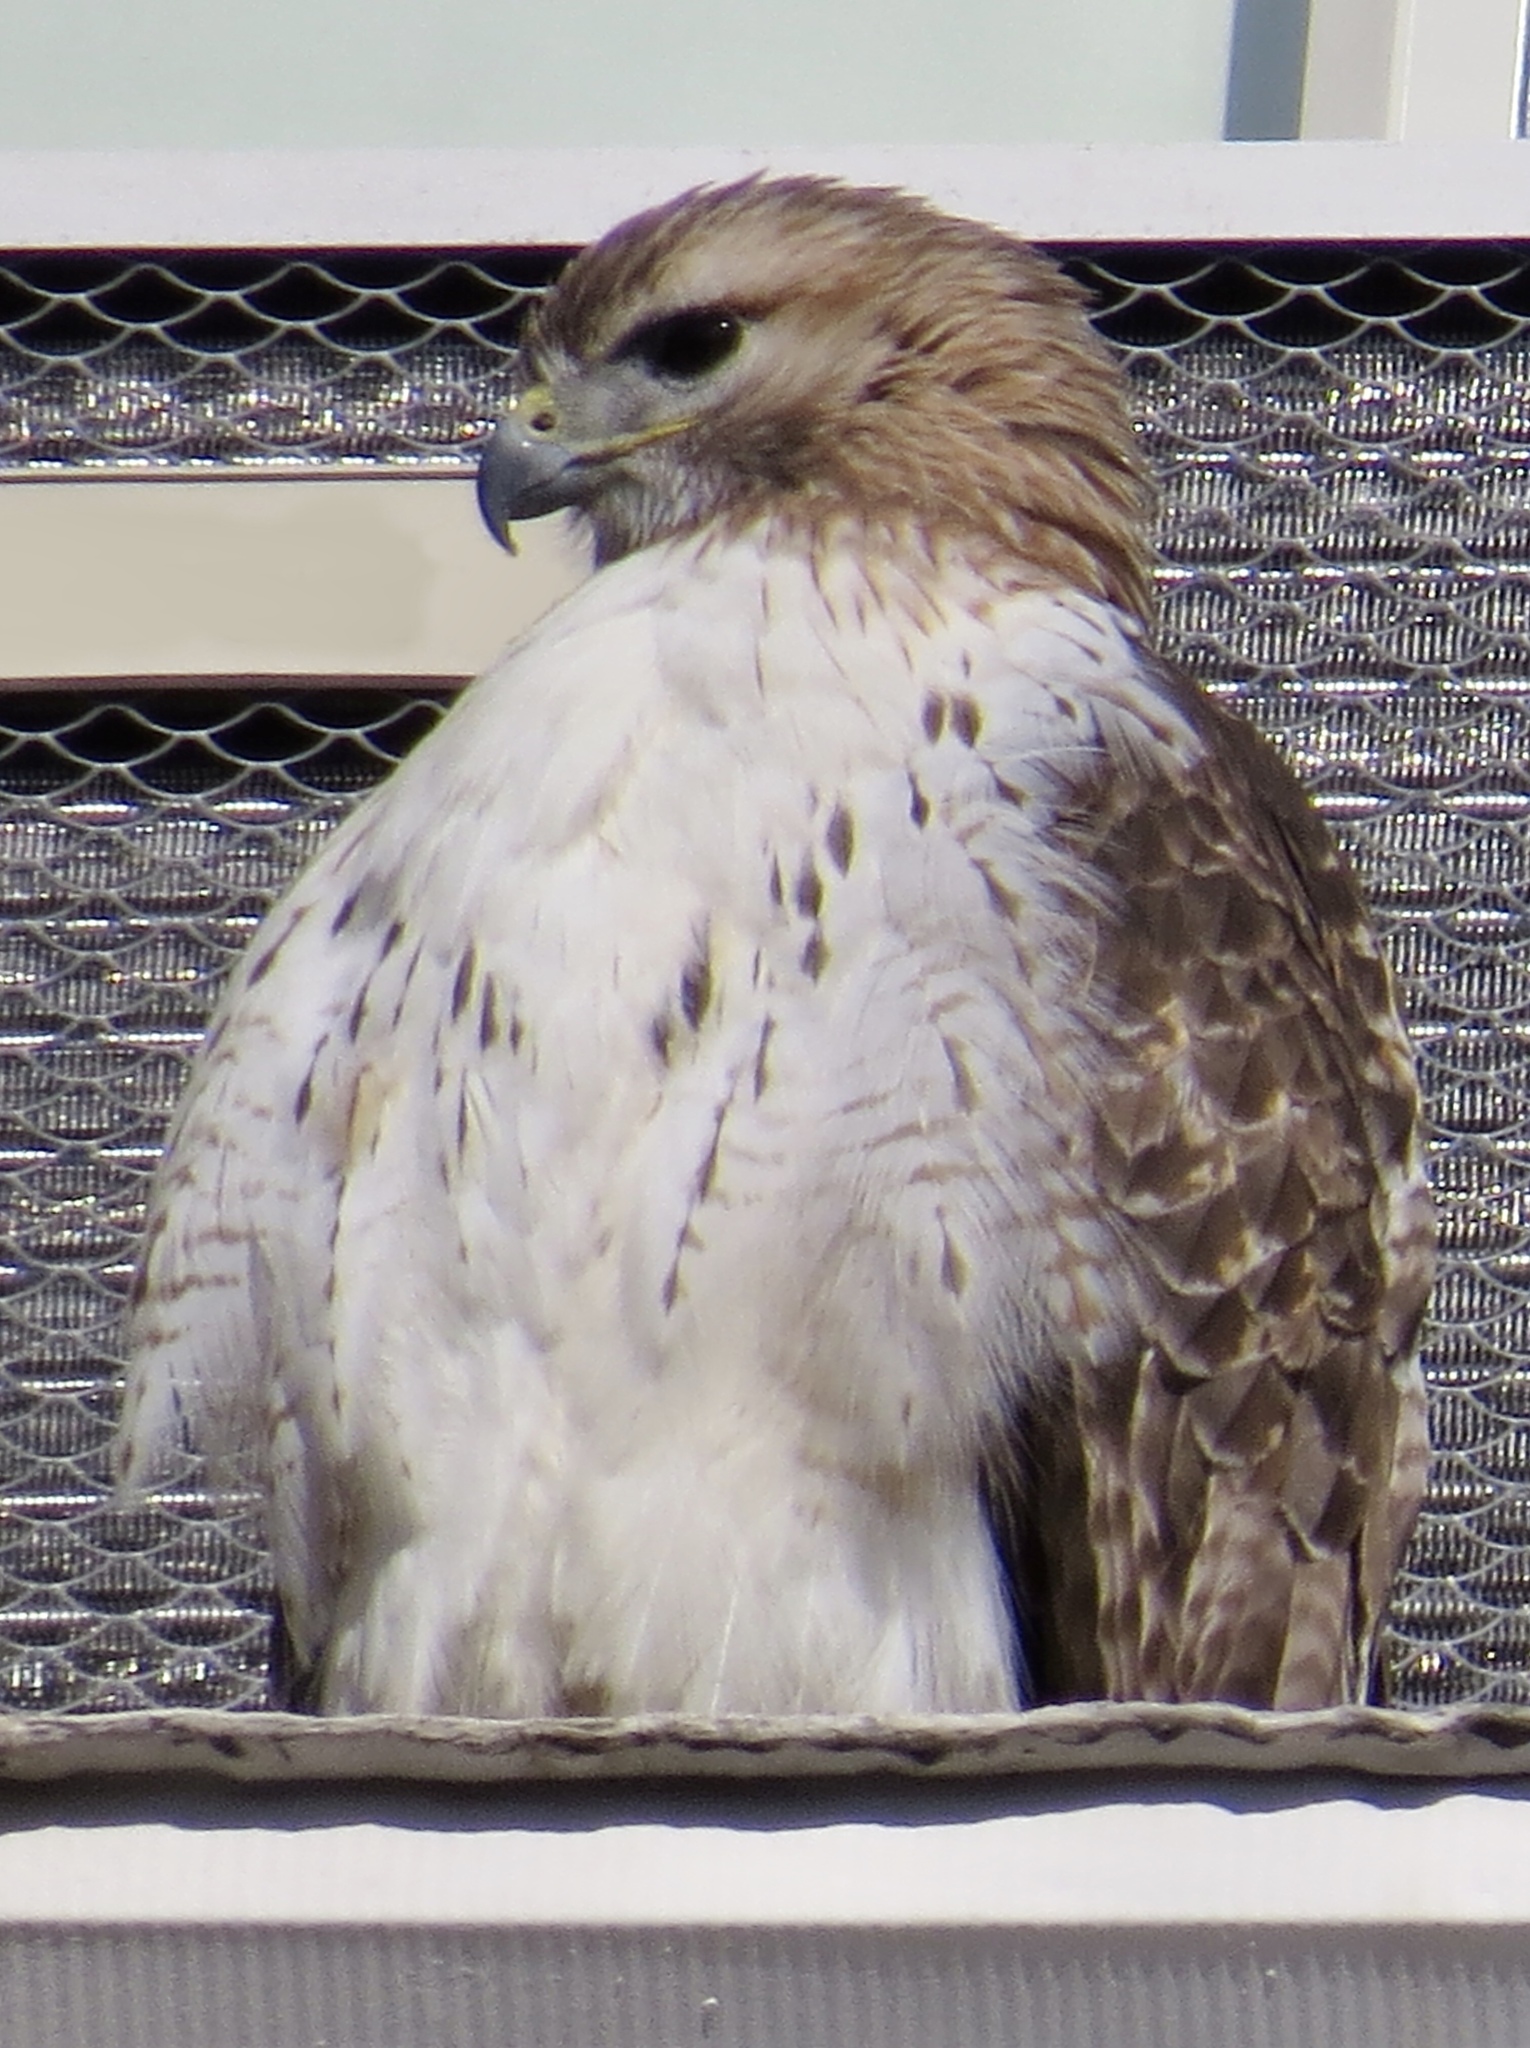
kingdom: Animalia
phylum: Chordata
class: Aves
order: Accipitriformes
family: Accipitridae
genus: Buteo
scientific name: Buteo jamaicensis
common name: Red-tailed hawk
